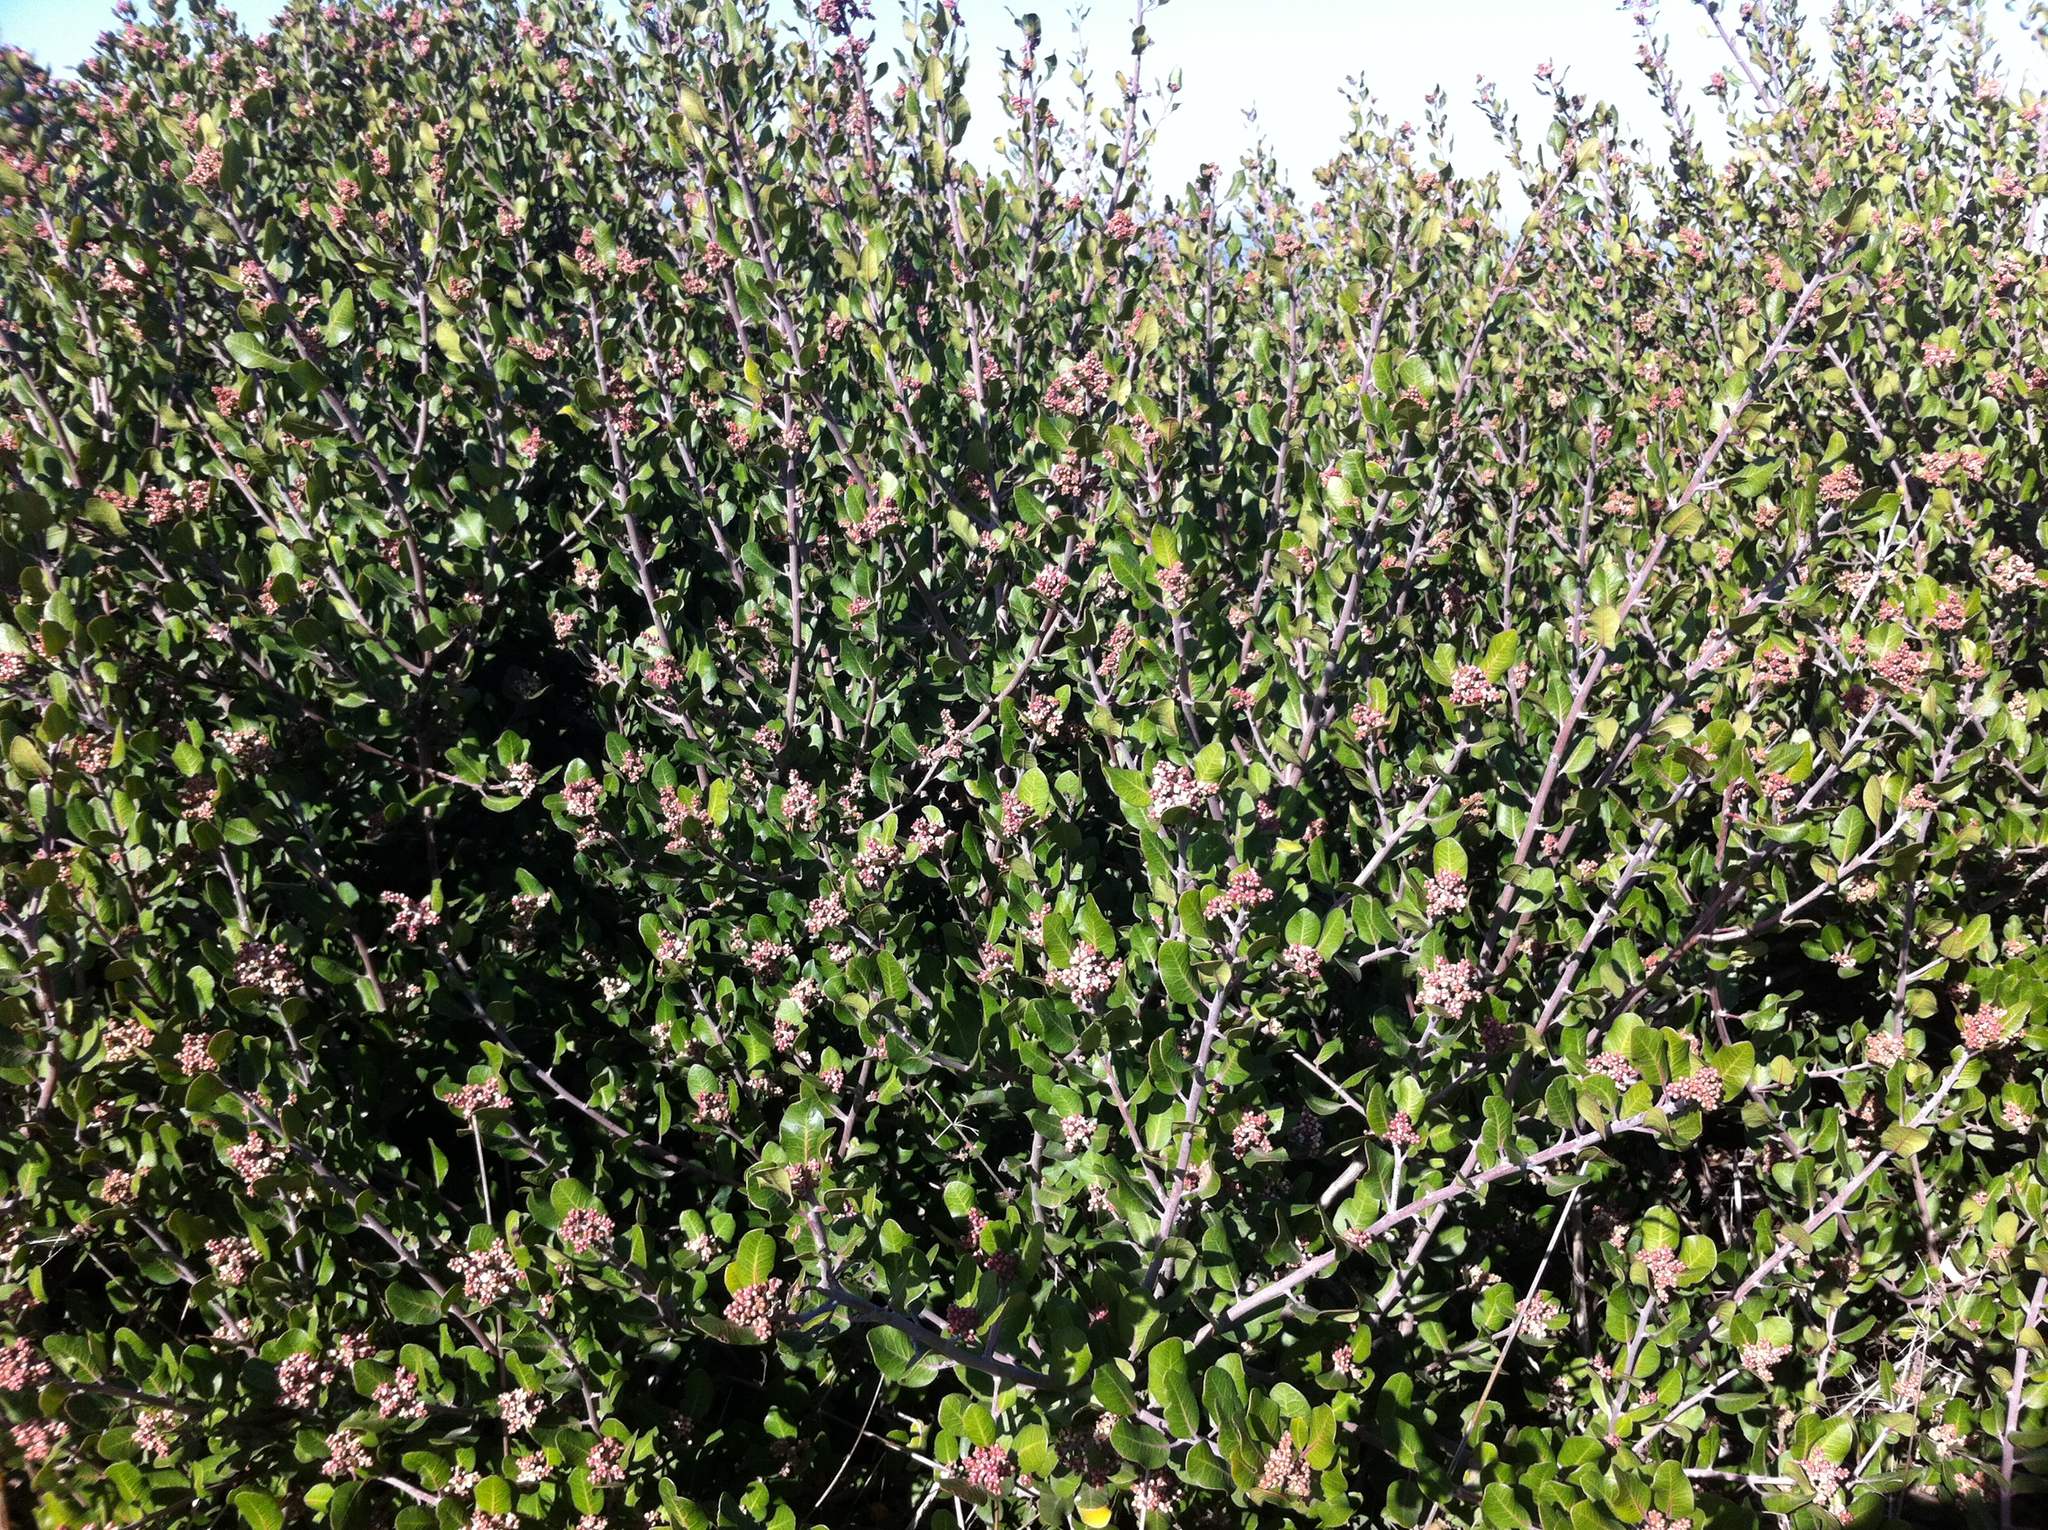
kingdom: Plantae
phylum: Tracheophyta
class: Magnoliopsida
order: Sapindales
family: Anacardiaceae
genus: Rhus
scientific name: Rhus integrifolia
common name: Lemonade sumac
